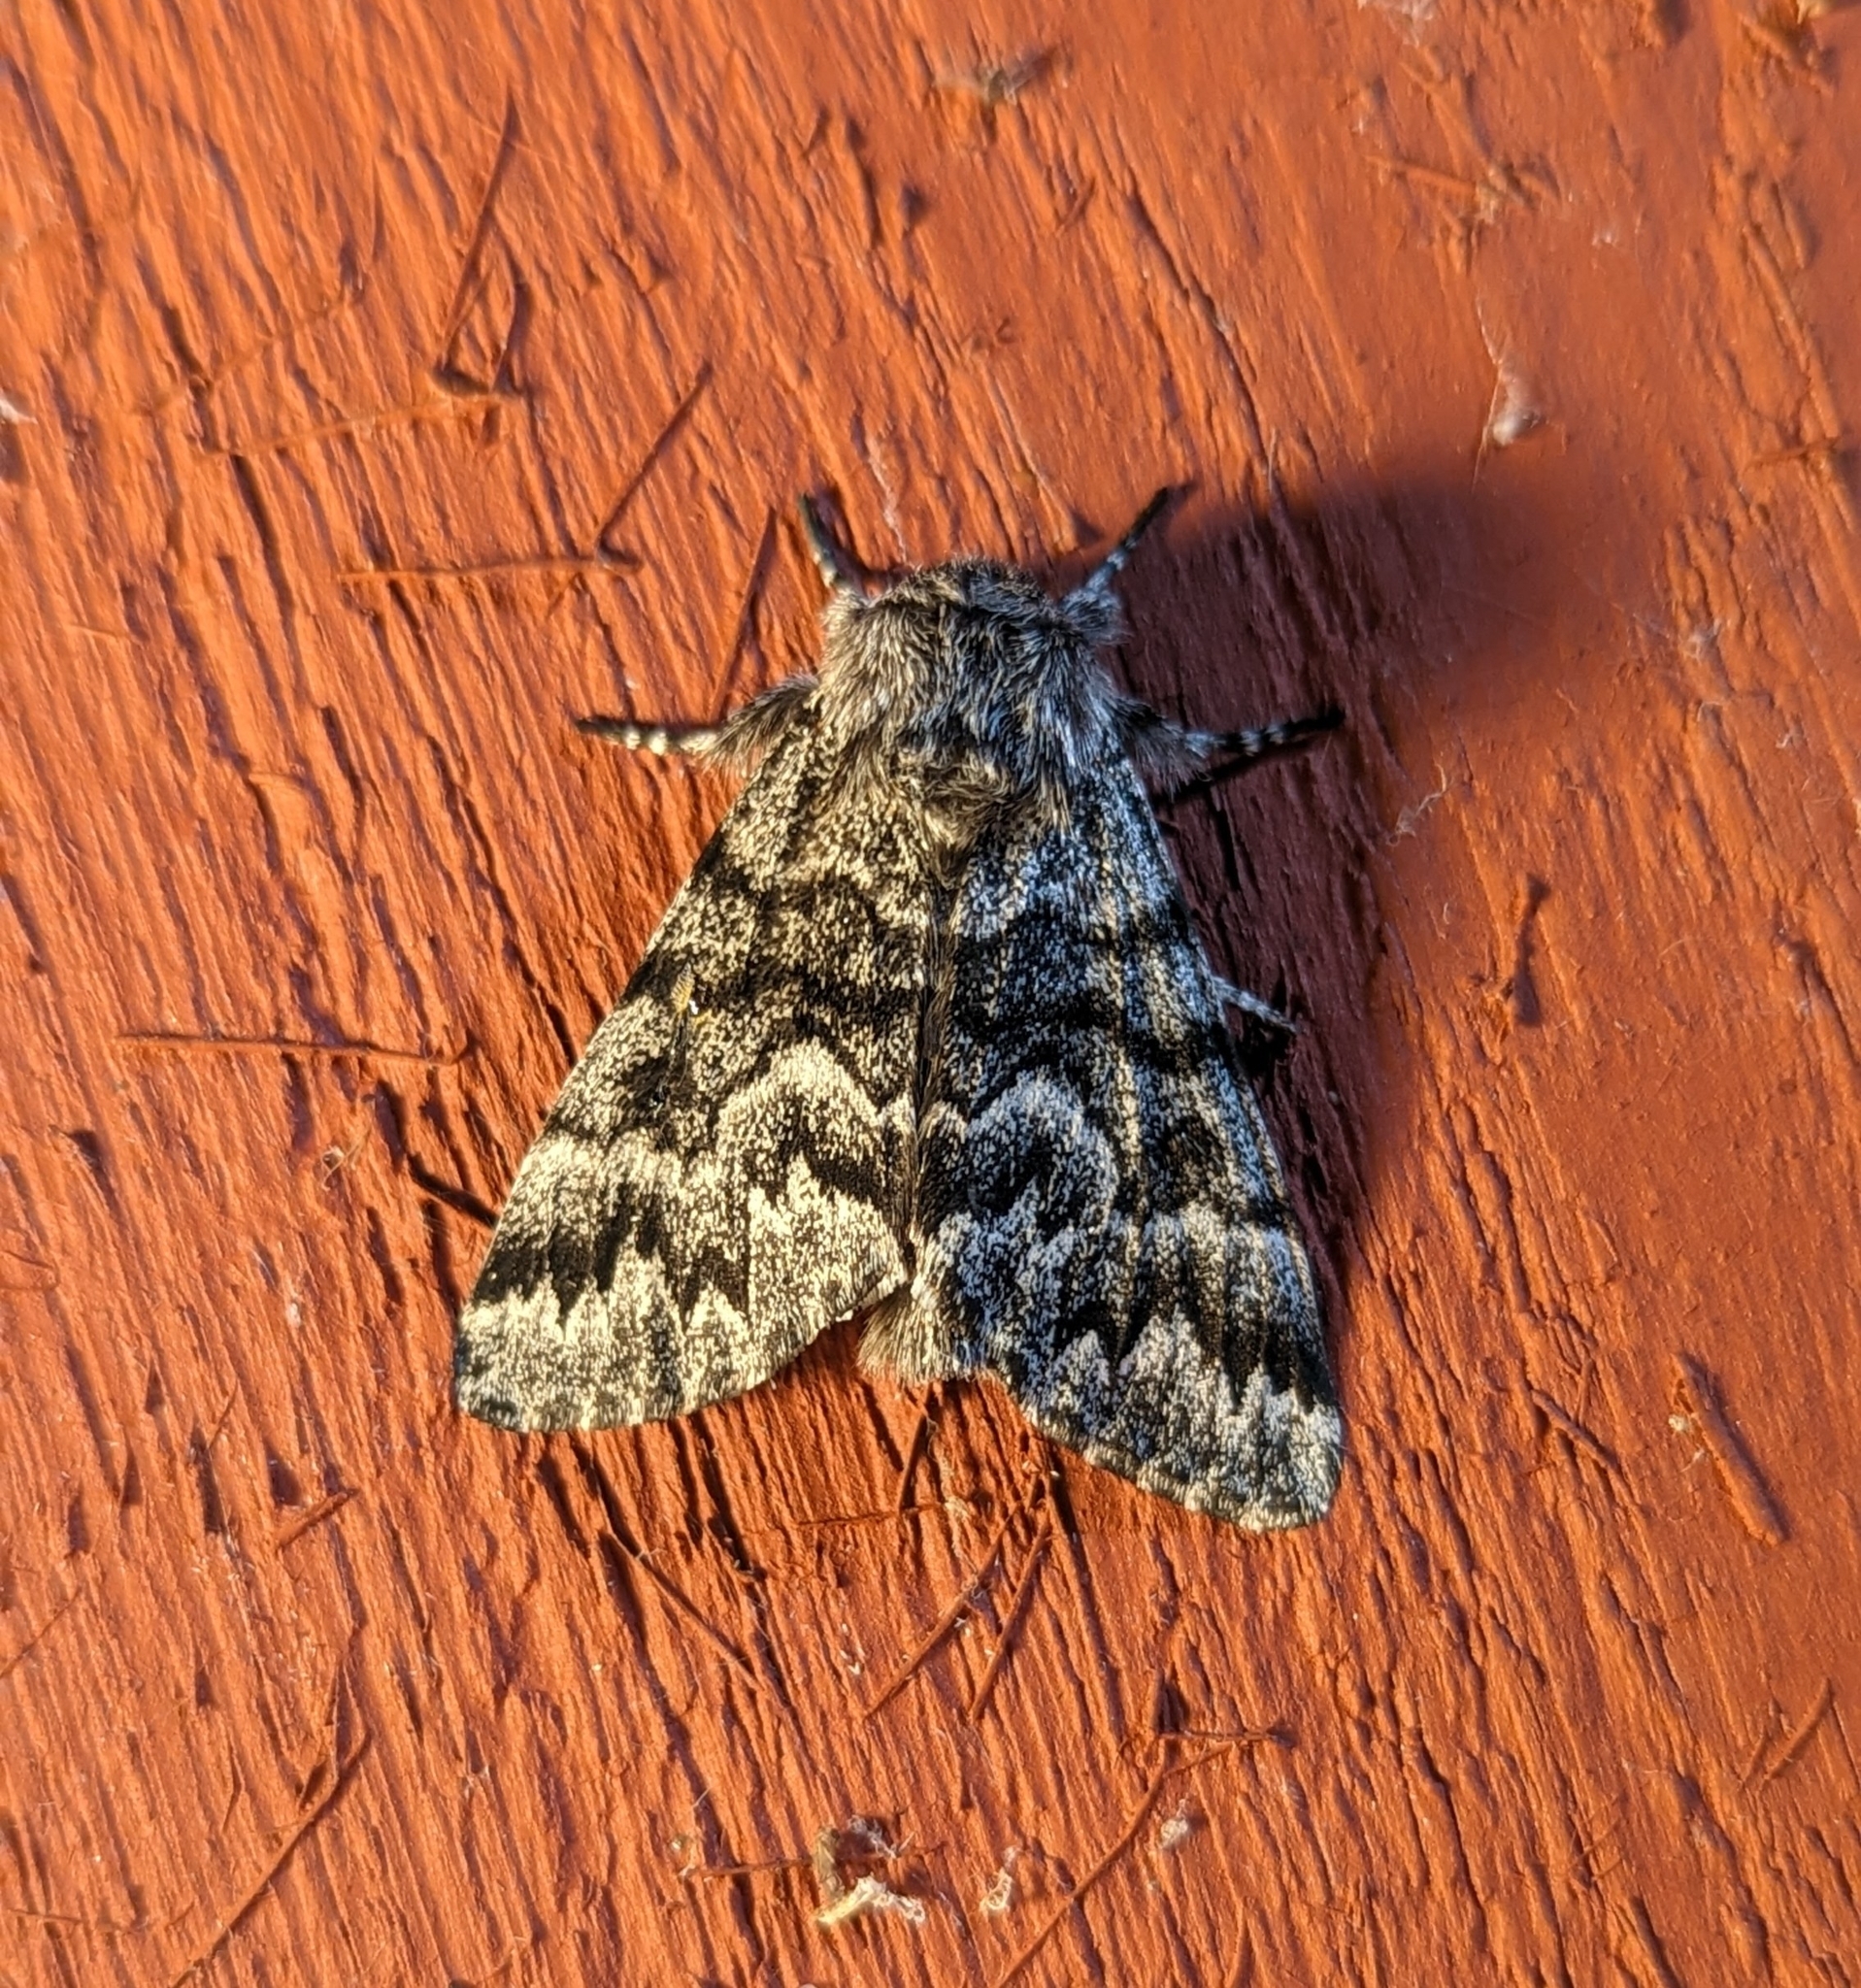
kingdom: Animalia
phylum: Arthropoda
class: Insecta
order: Lepidoptera
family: Noctuidae
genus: Panthea
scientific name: Panthea virginarius
